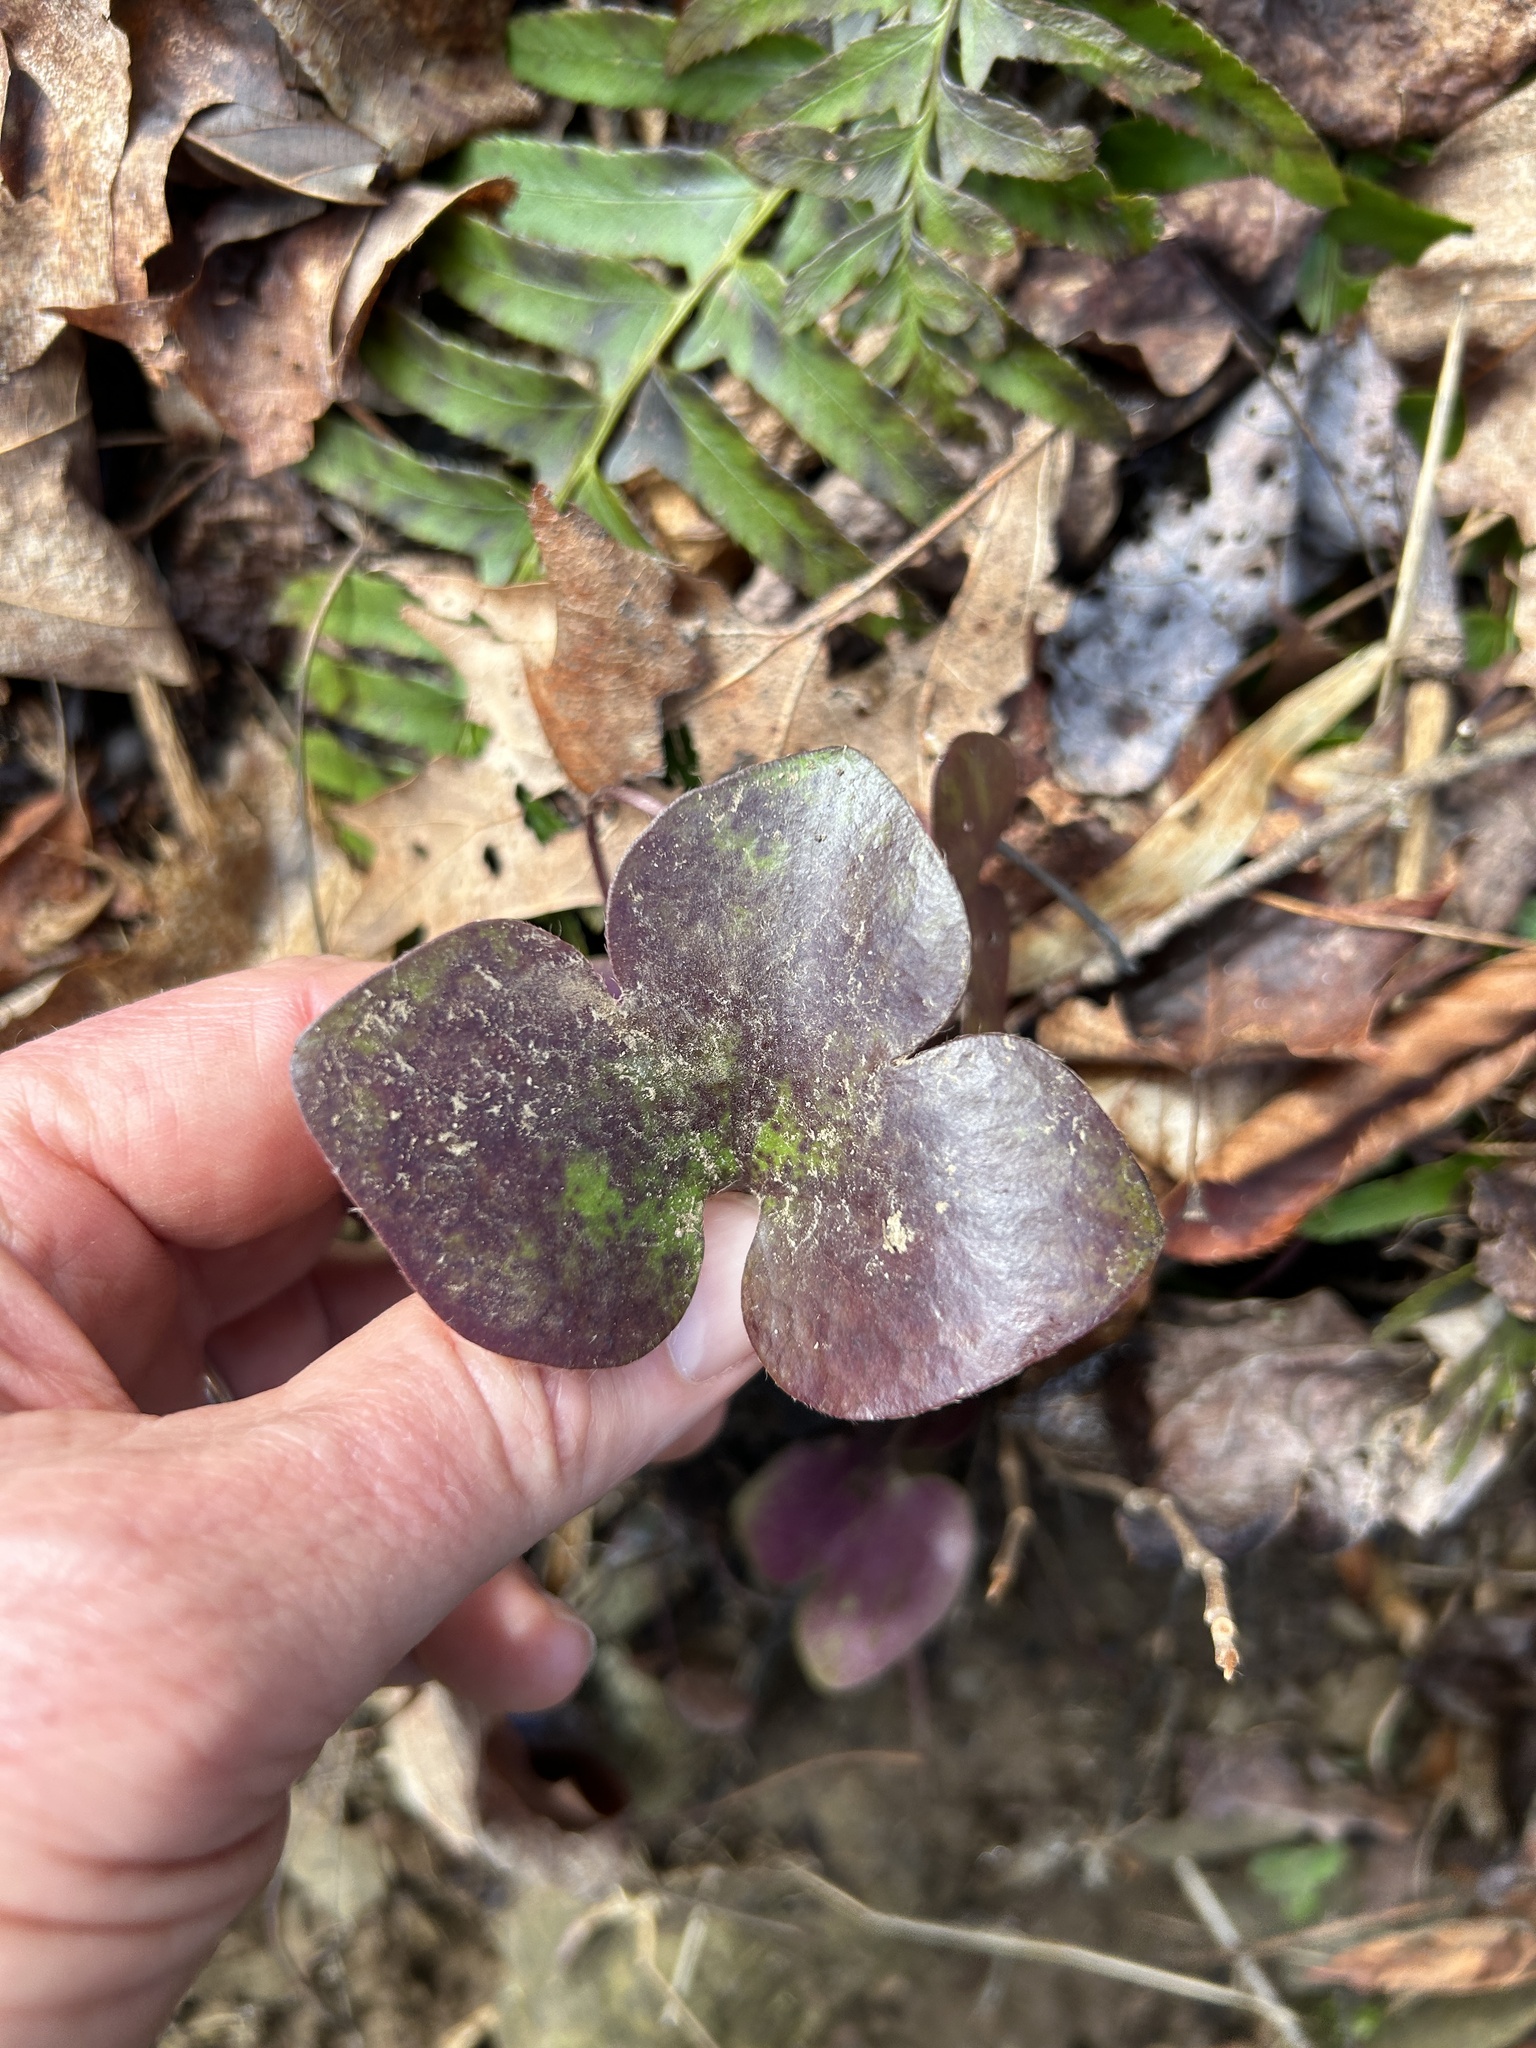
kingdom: Plantae
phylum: Tracheophyta
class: Magnoliopsida
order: Ranunculales
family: Ranunculaceae
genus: Hepatica
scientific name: Hepatica americana
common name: American hepatica
